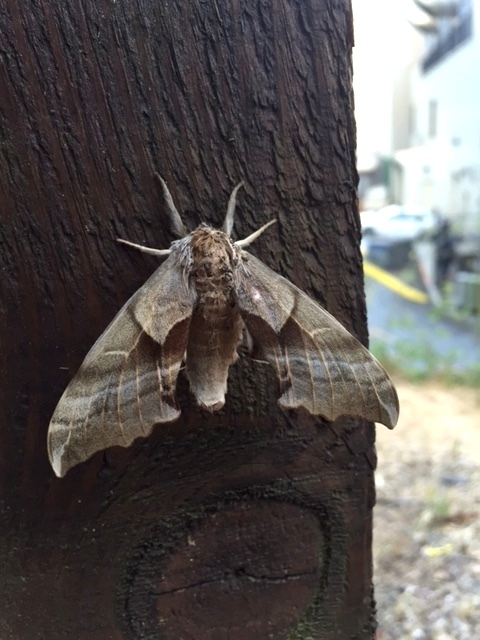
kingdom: Animalia
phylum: Arthropoda
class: Insecta
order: Lepidoptera
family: Sphingidae
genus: Smerinthus
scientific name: Smerinthus cerisyi
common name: Cerisy's sphinx moth
